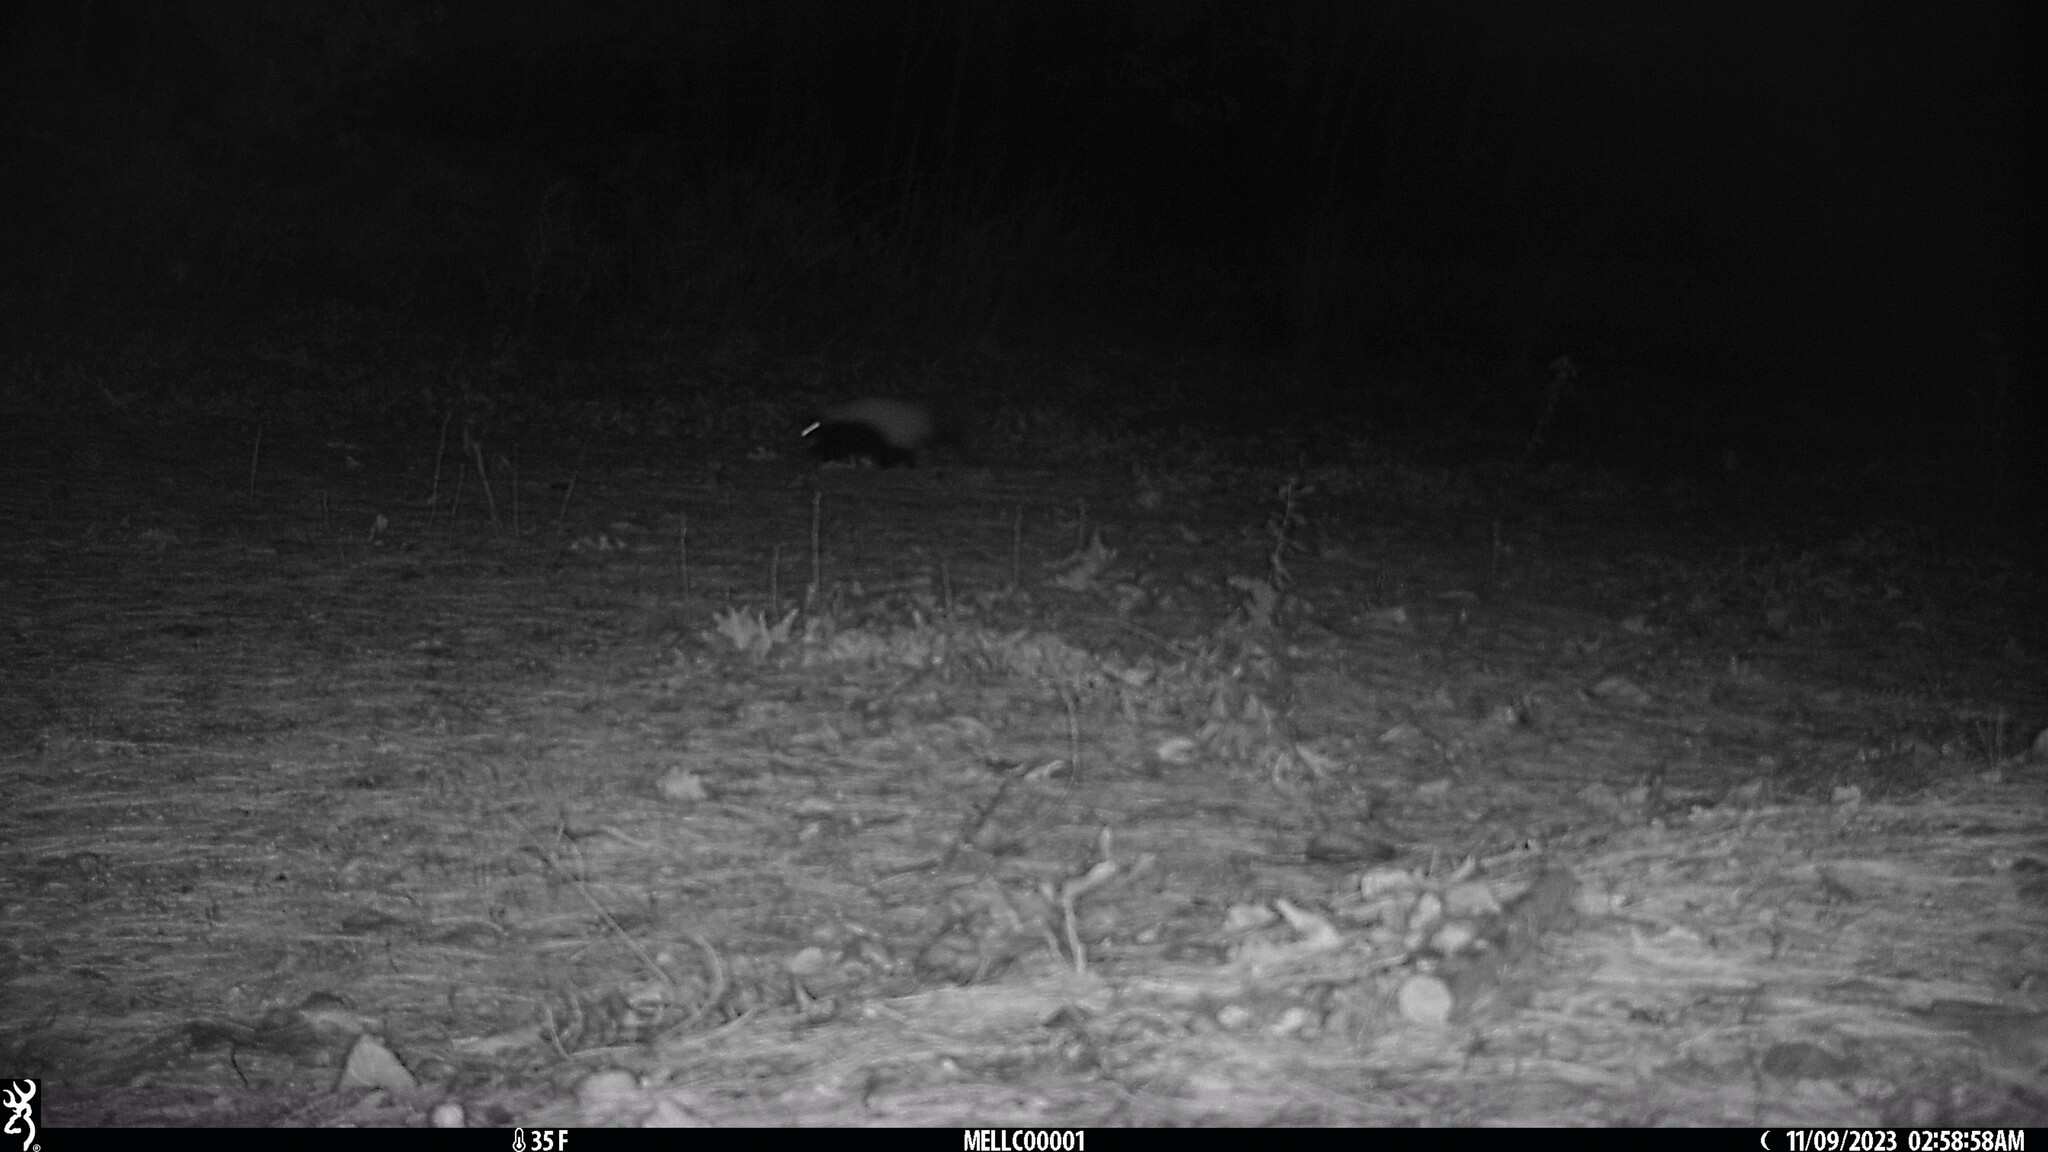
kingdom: Animalia
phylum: Chordata
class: Mammalia
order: Carnivora
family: Mephitidae
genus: Mephitis
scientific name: Mephitis mephitis
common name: Striped skunk
